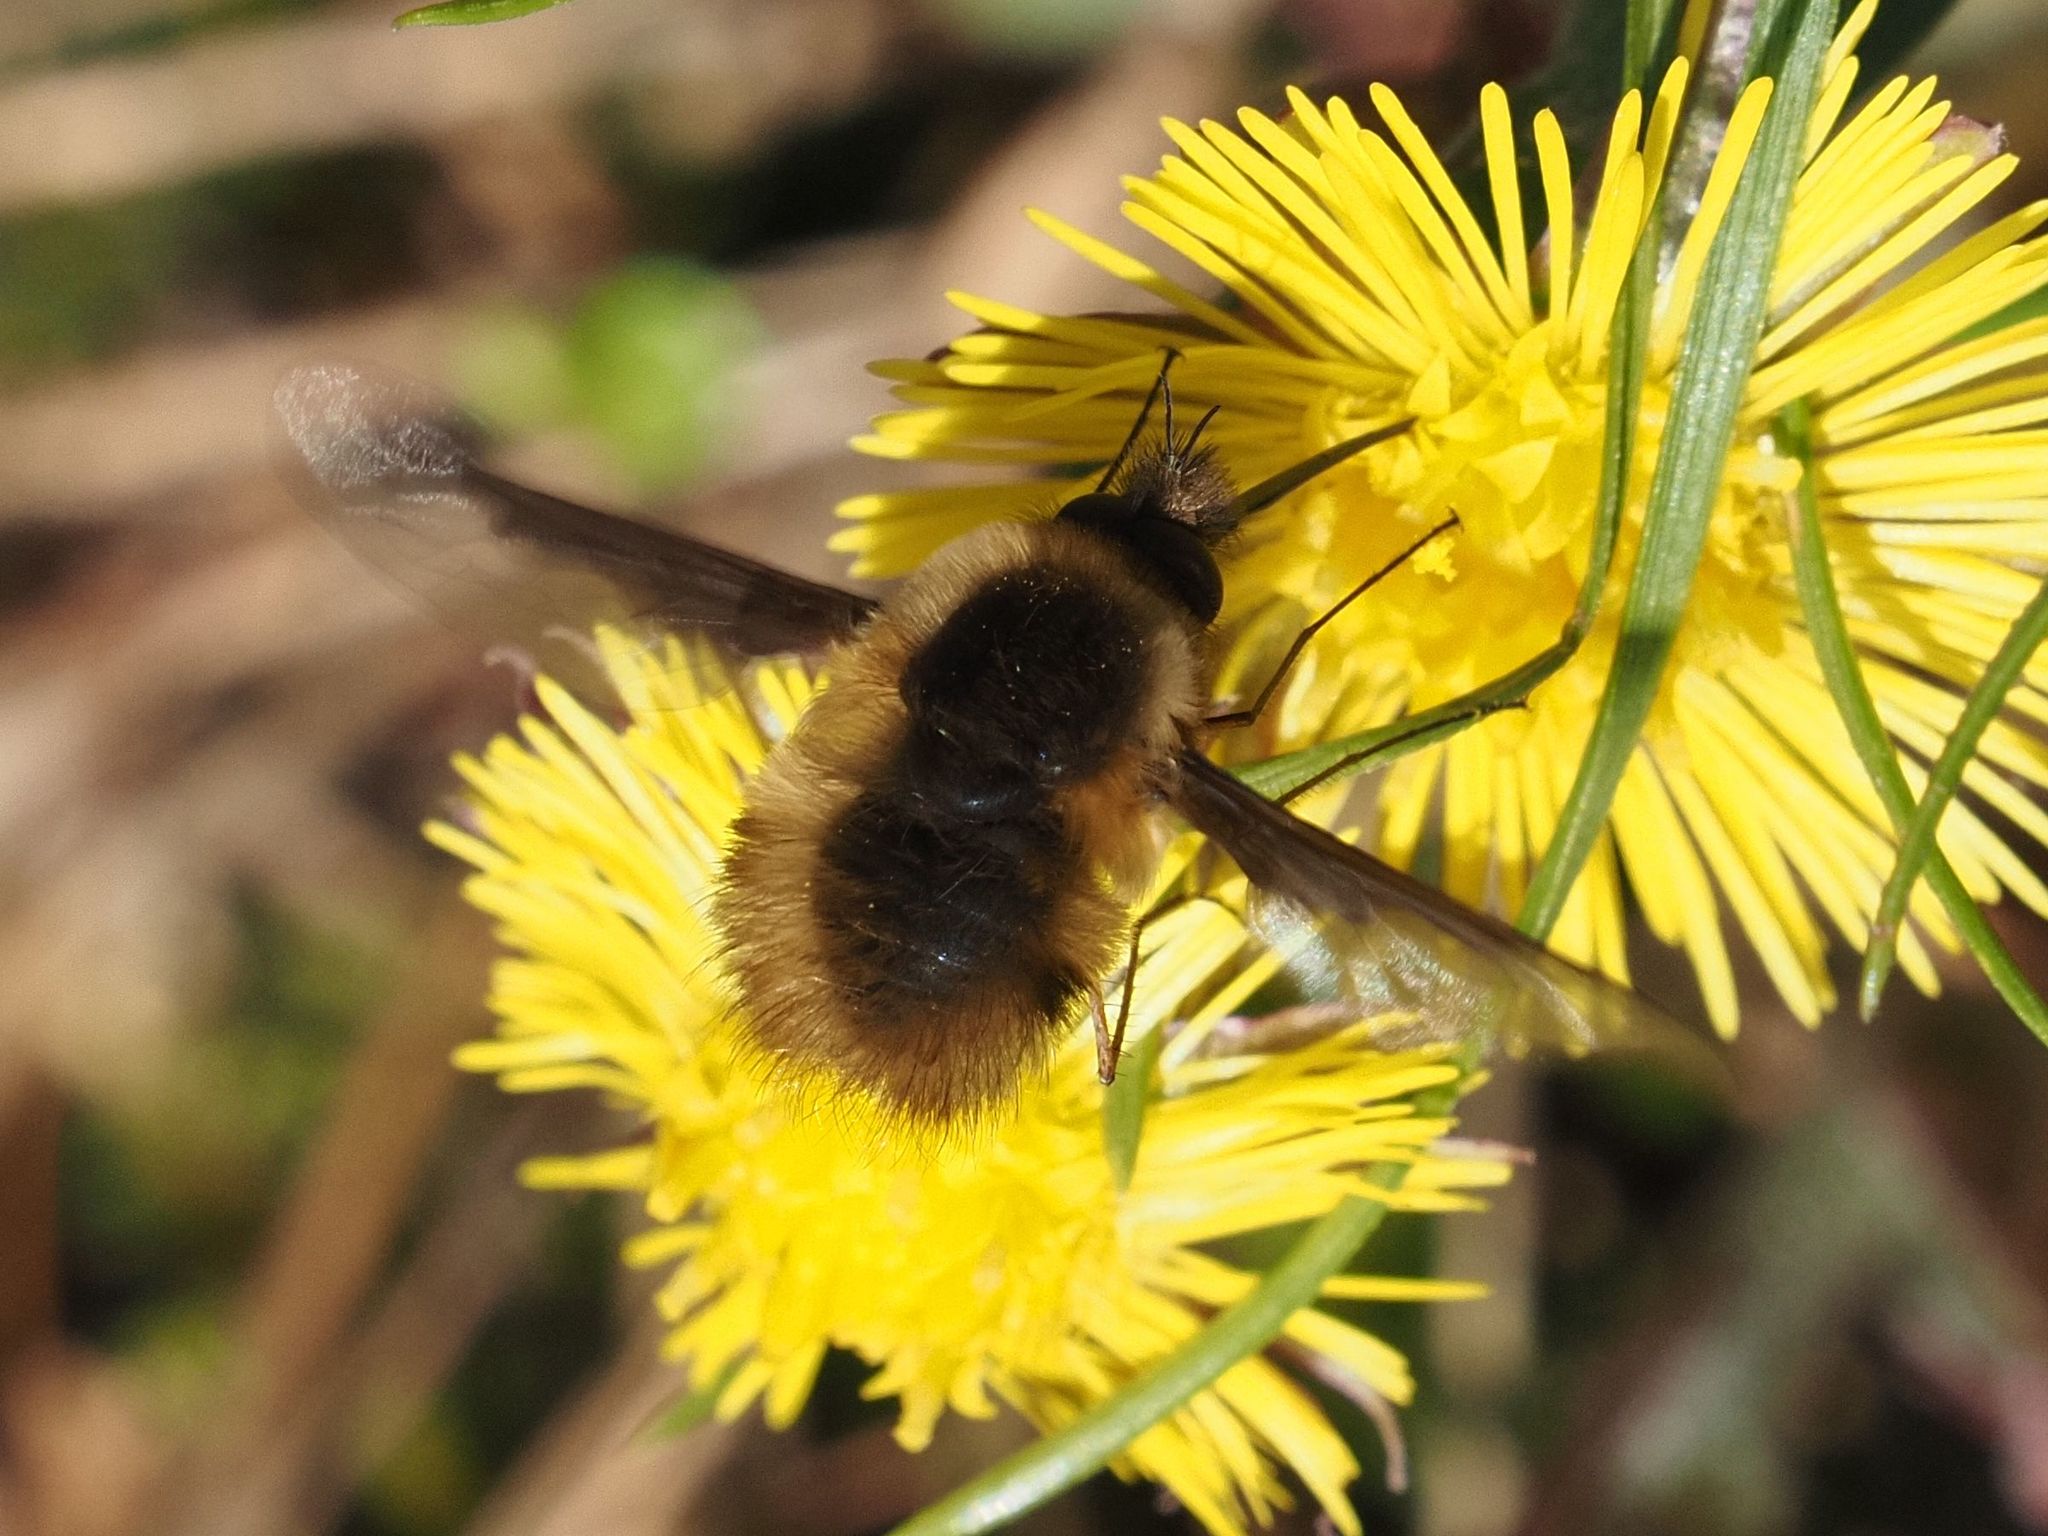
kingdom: Animalia
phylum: Arthropoda
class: Insecta
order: Diptera
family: Bombyliidae
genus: Bombylius
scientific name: Bombylius major
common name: Bee fly
